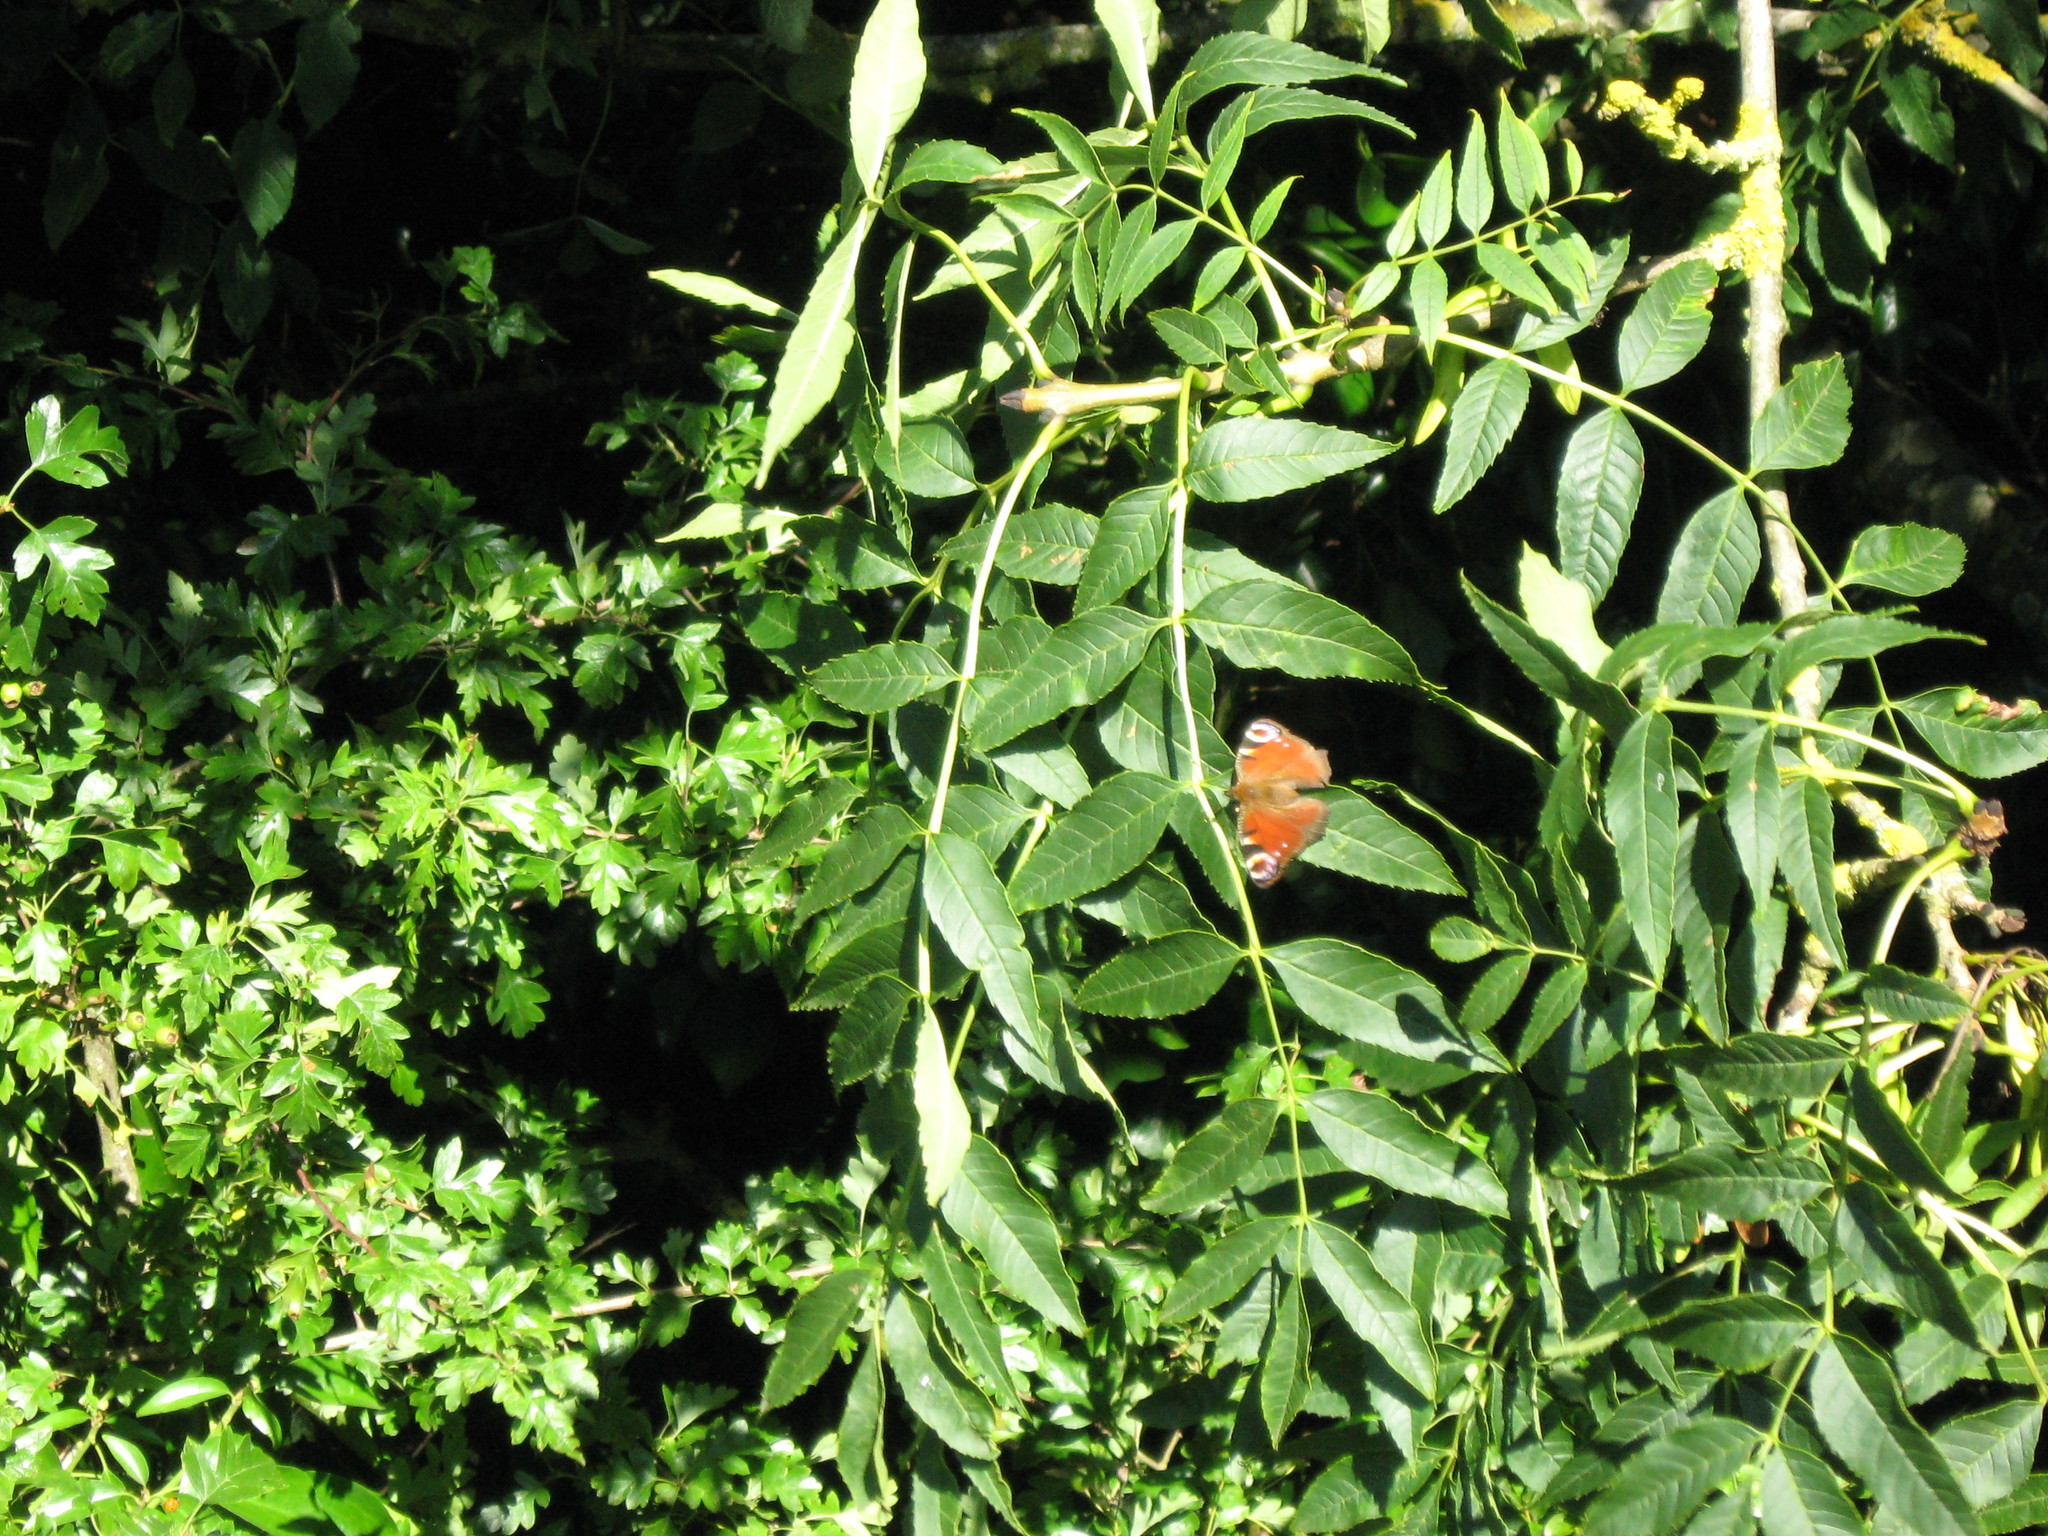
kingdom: Animalia
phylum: Arthropoda
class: Insecta
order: Lepidoptera
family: Nymphalidae
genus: Aglais
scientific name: Aglais io
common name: Peacock
